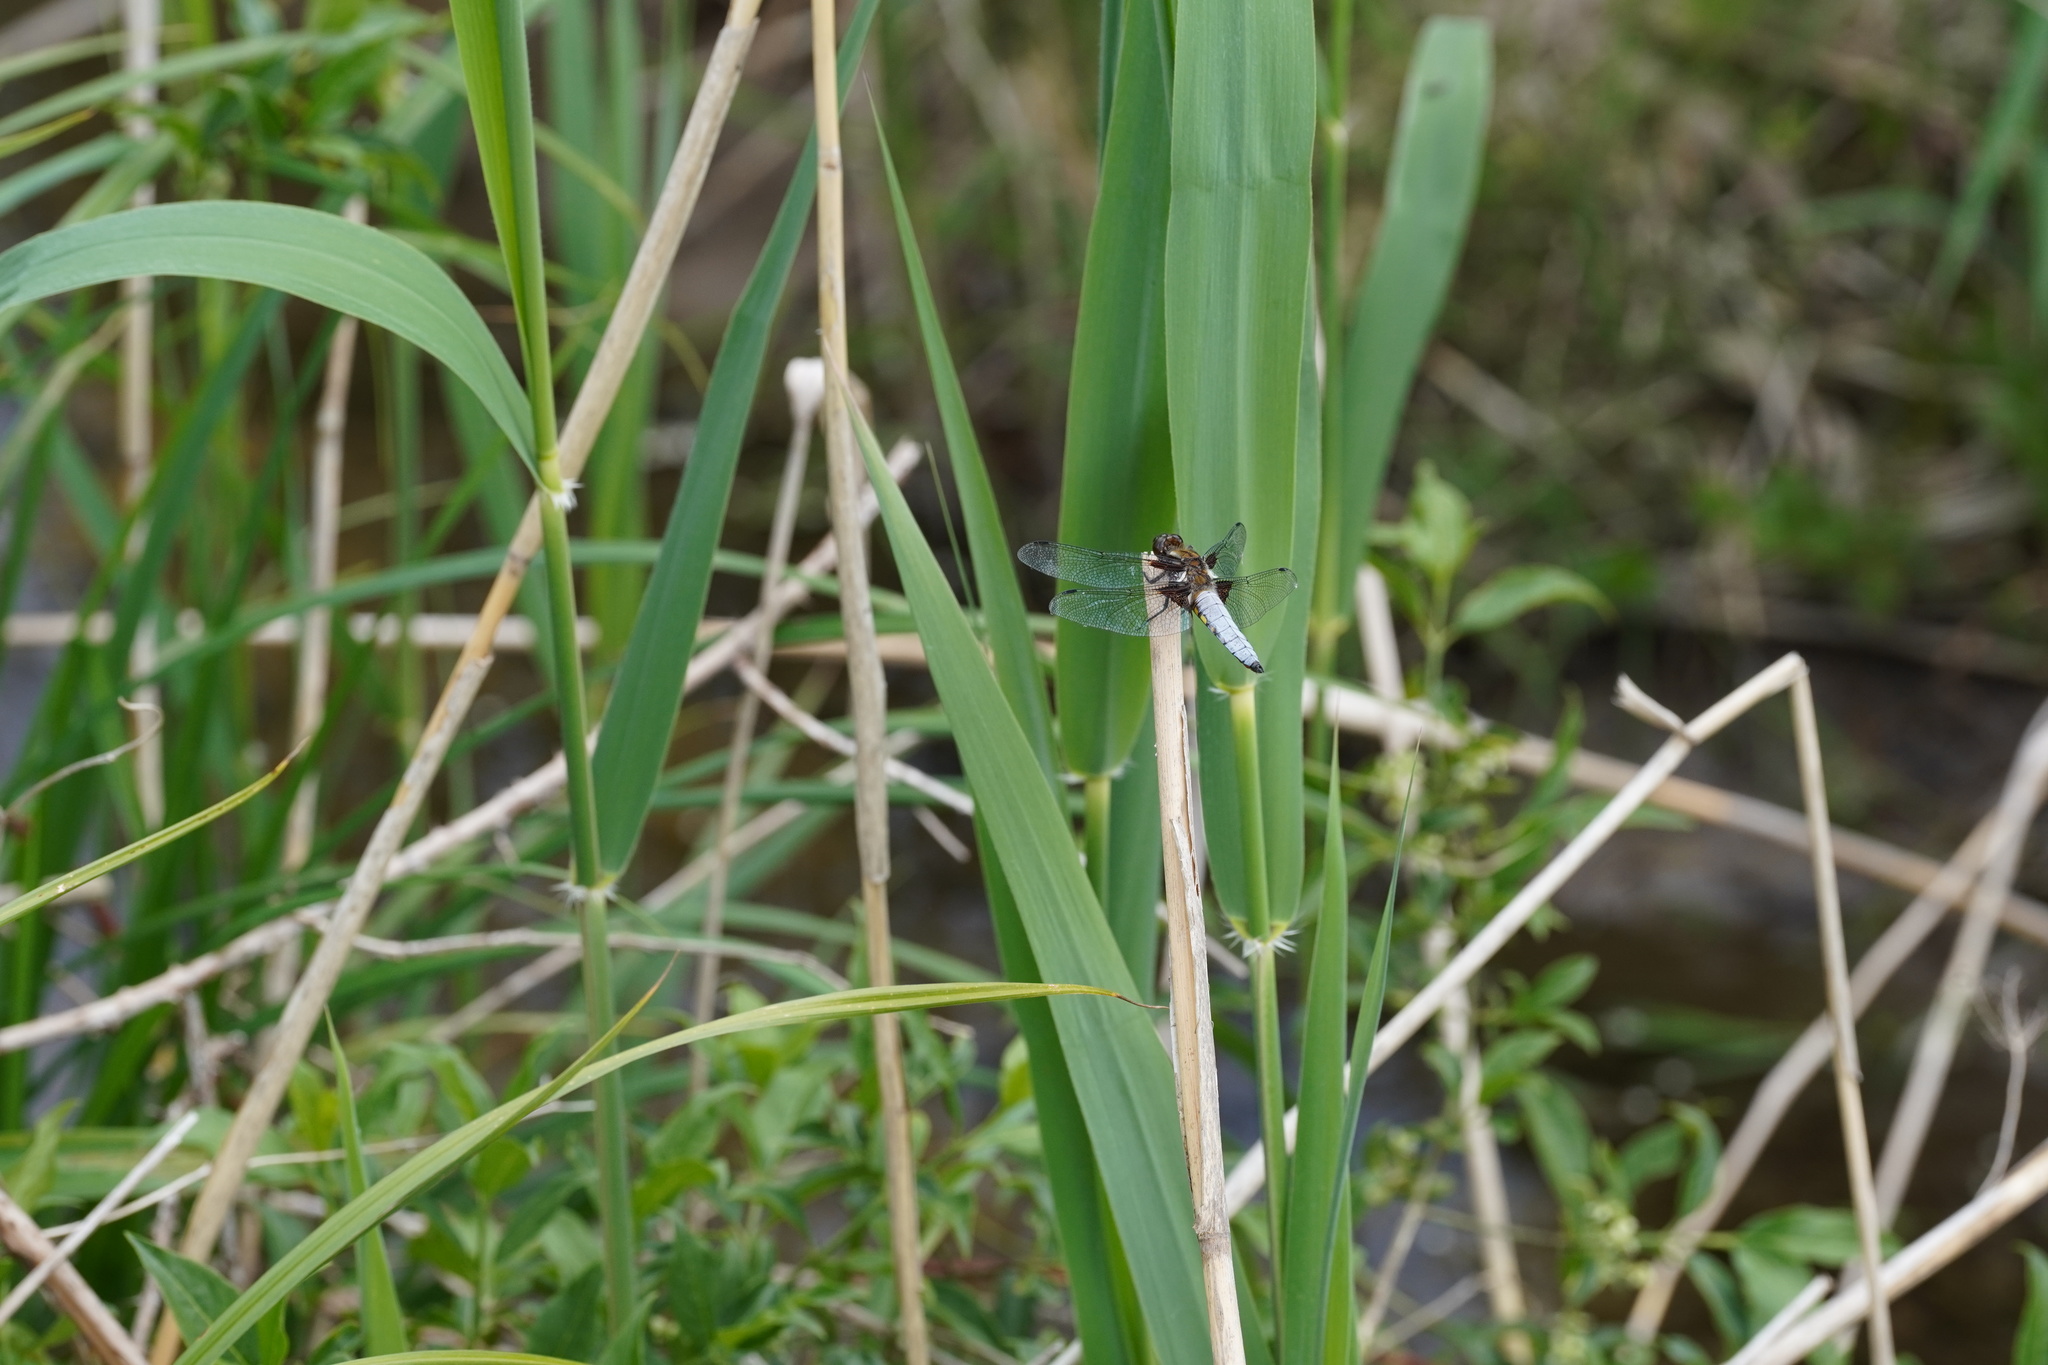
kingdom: Animalia
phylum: Arthropoda
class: Insecta
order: Odonata
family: Libellulidae
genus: Libellula
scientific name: Libellula depressa
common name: Broad-bodied chaser
